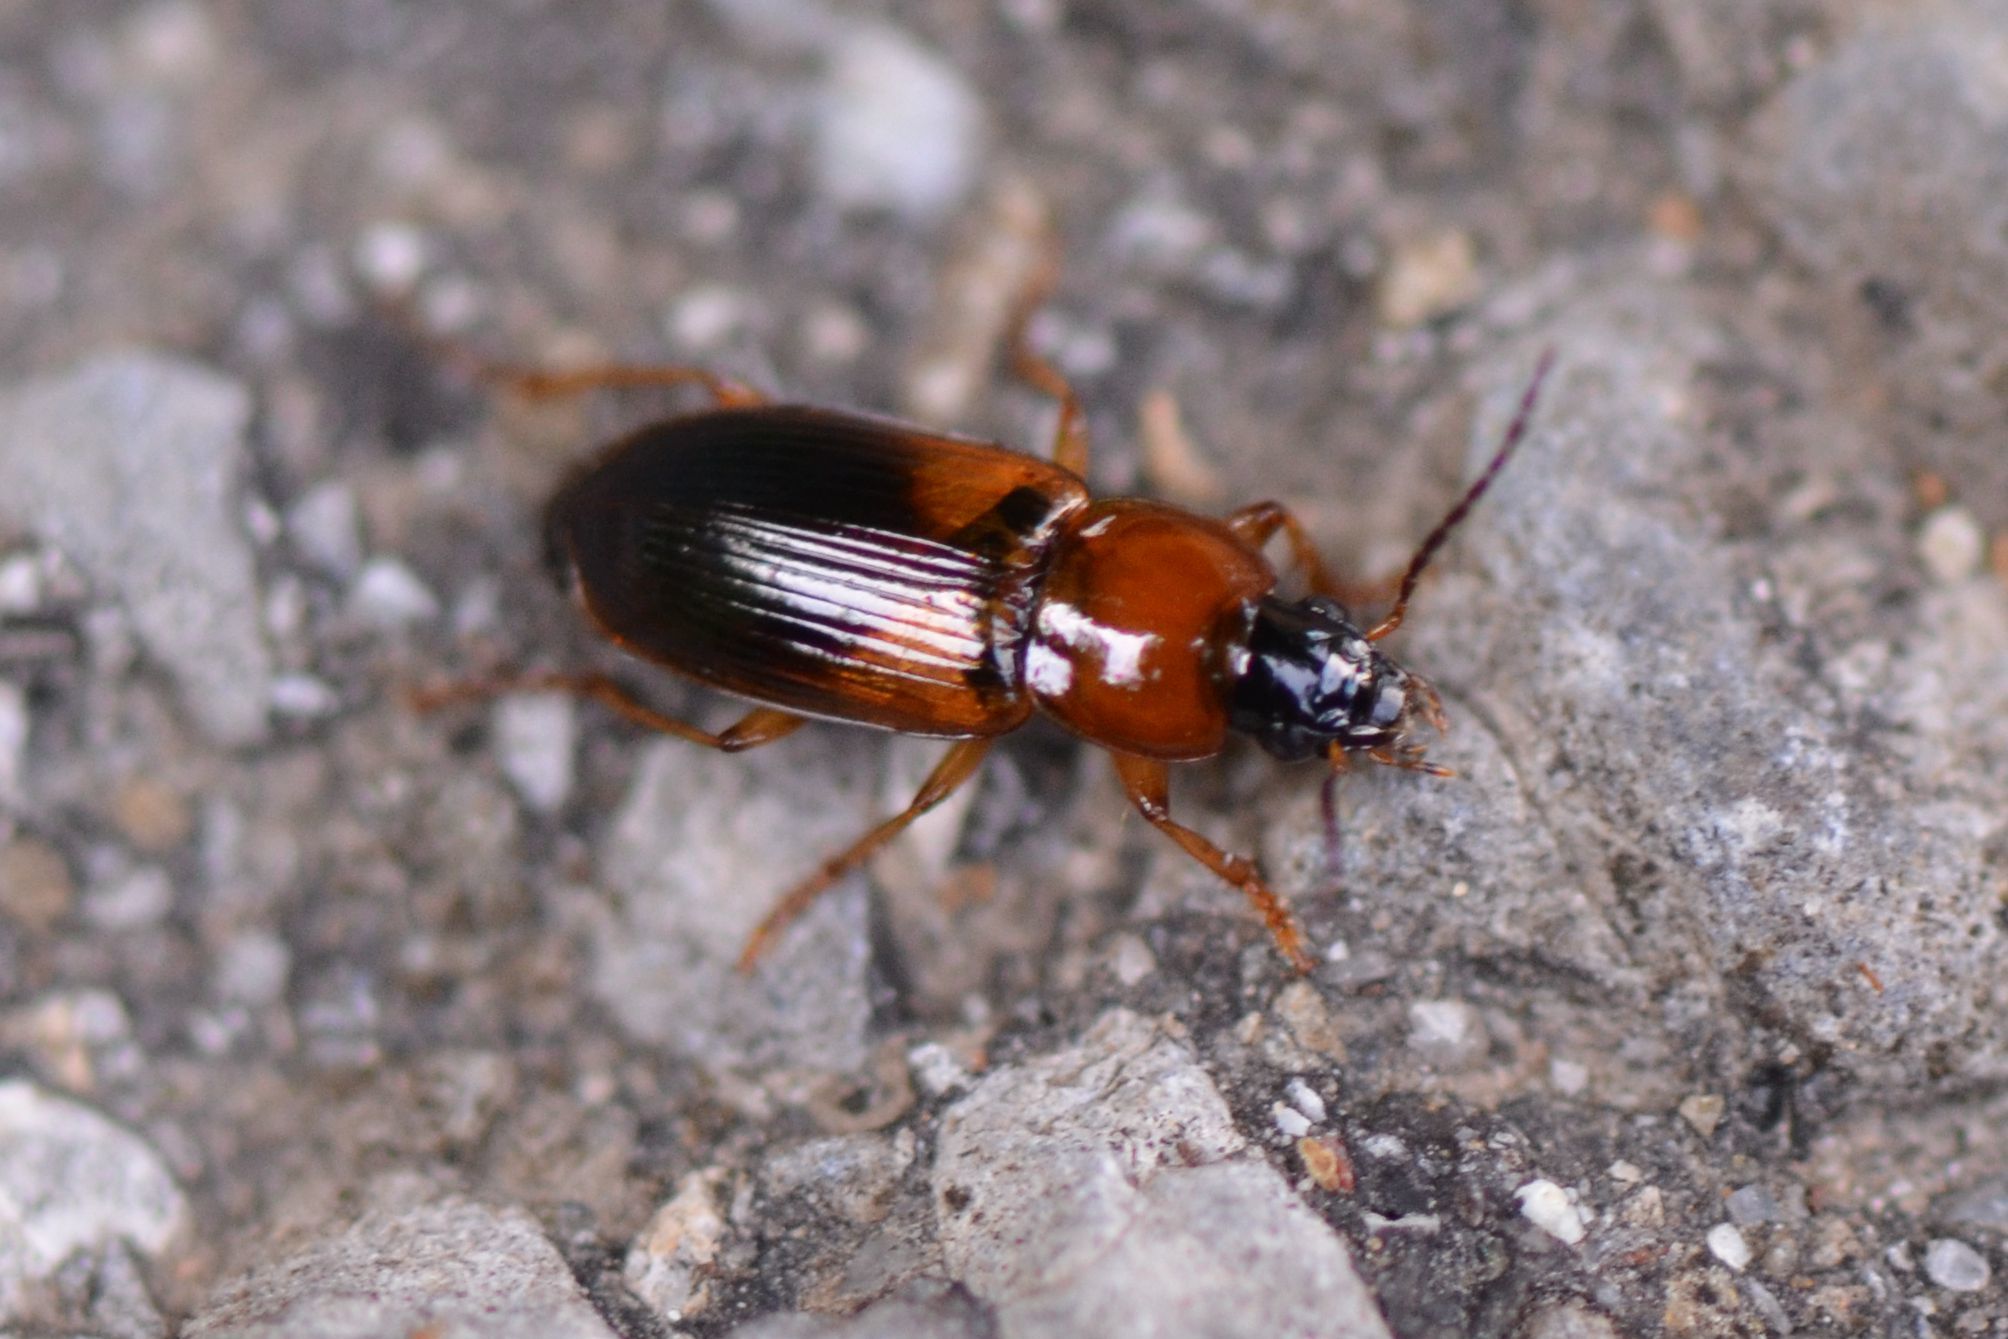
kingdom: Animalia
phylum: Arthropoda
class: Insecta
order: Coleoptera
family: Carabidae
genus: Stenolophus
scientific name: Stenolophus teutonus
